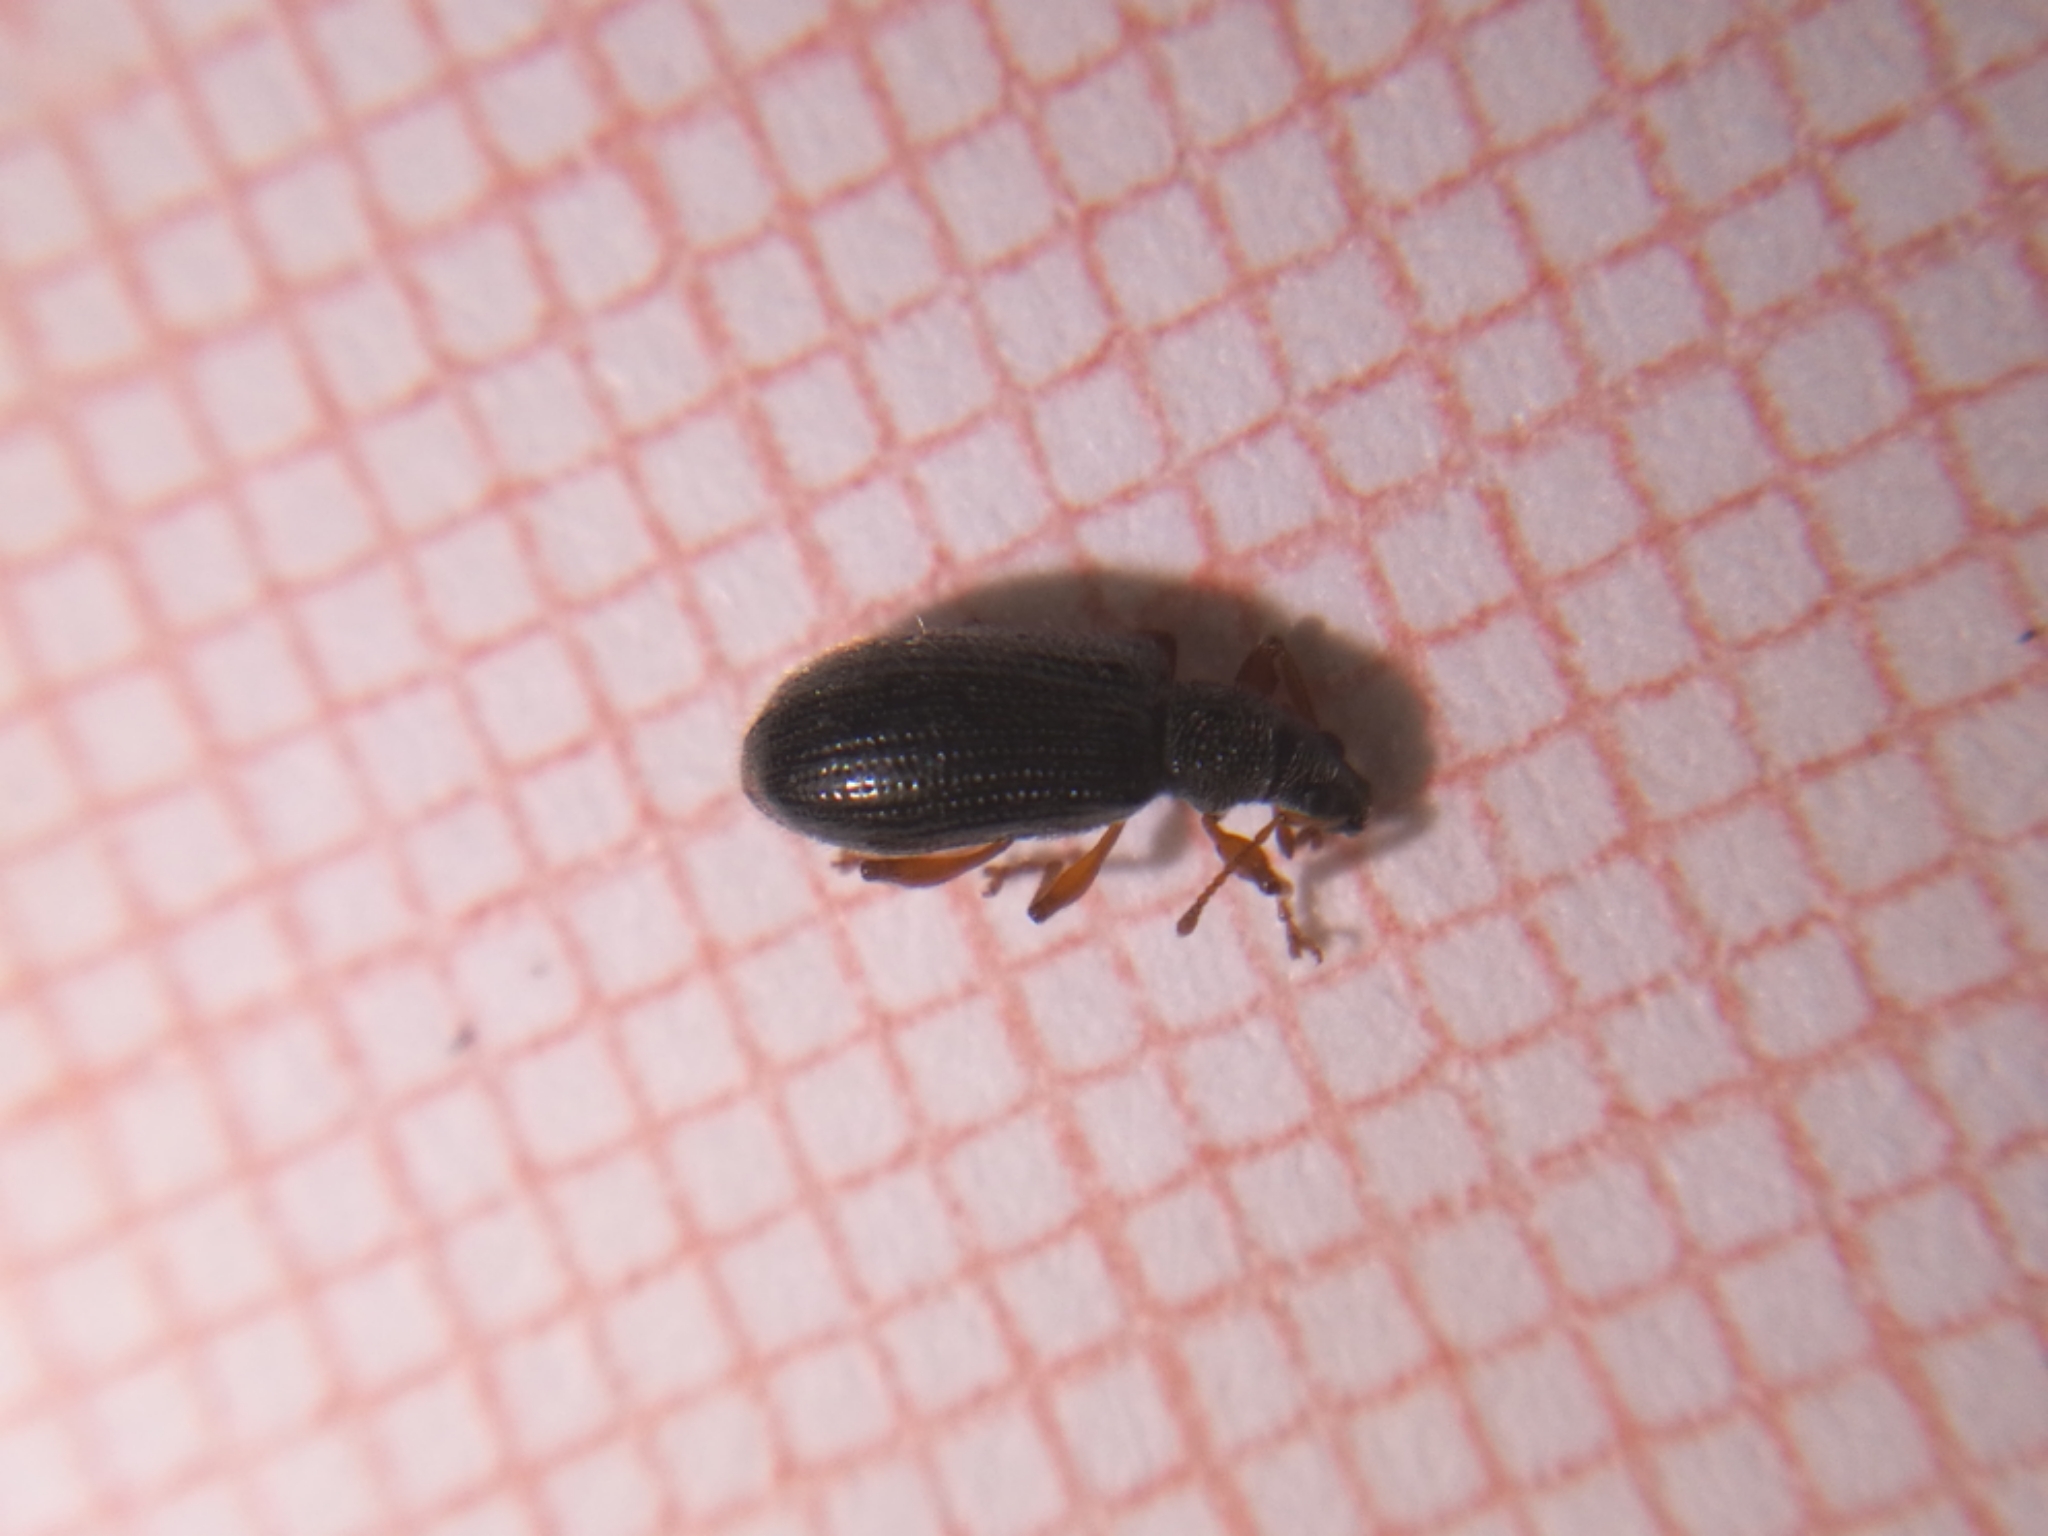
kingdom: Animalia
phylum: Arthropoda
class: Insecta
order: Coleoptera
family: Curculionidae
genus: Phyllobius
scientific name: Phyllobius oblongus
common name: Brown leaf weevil
